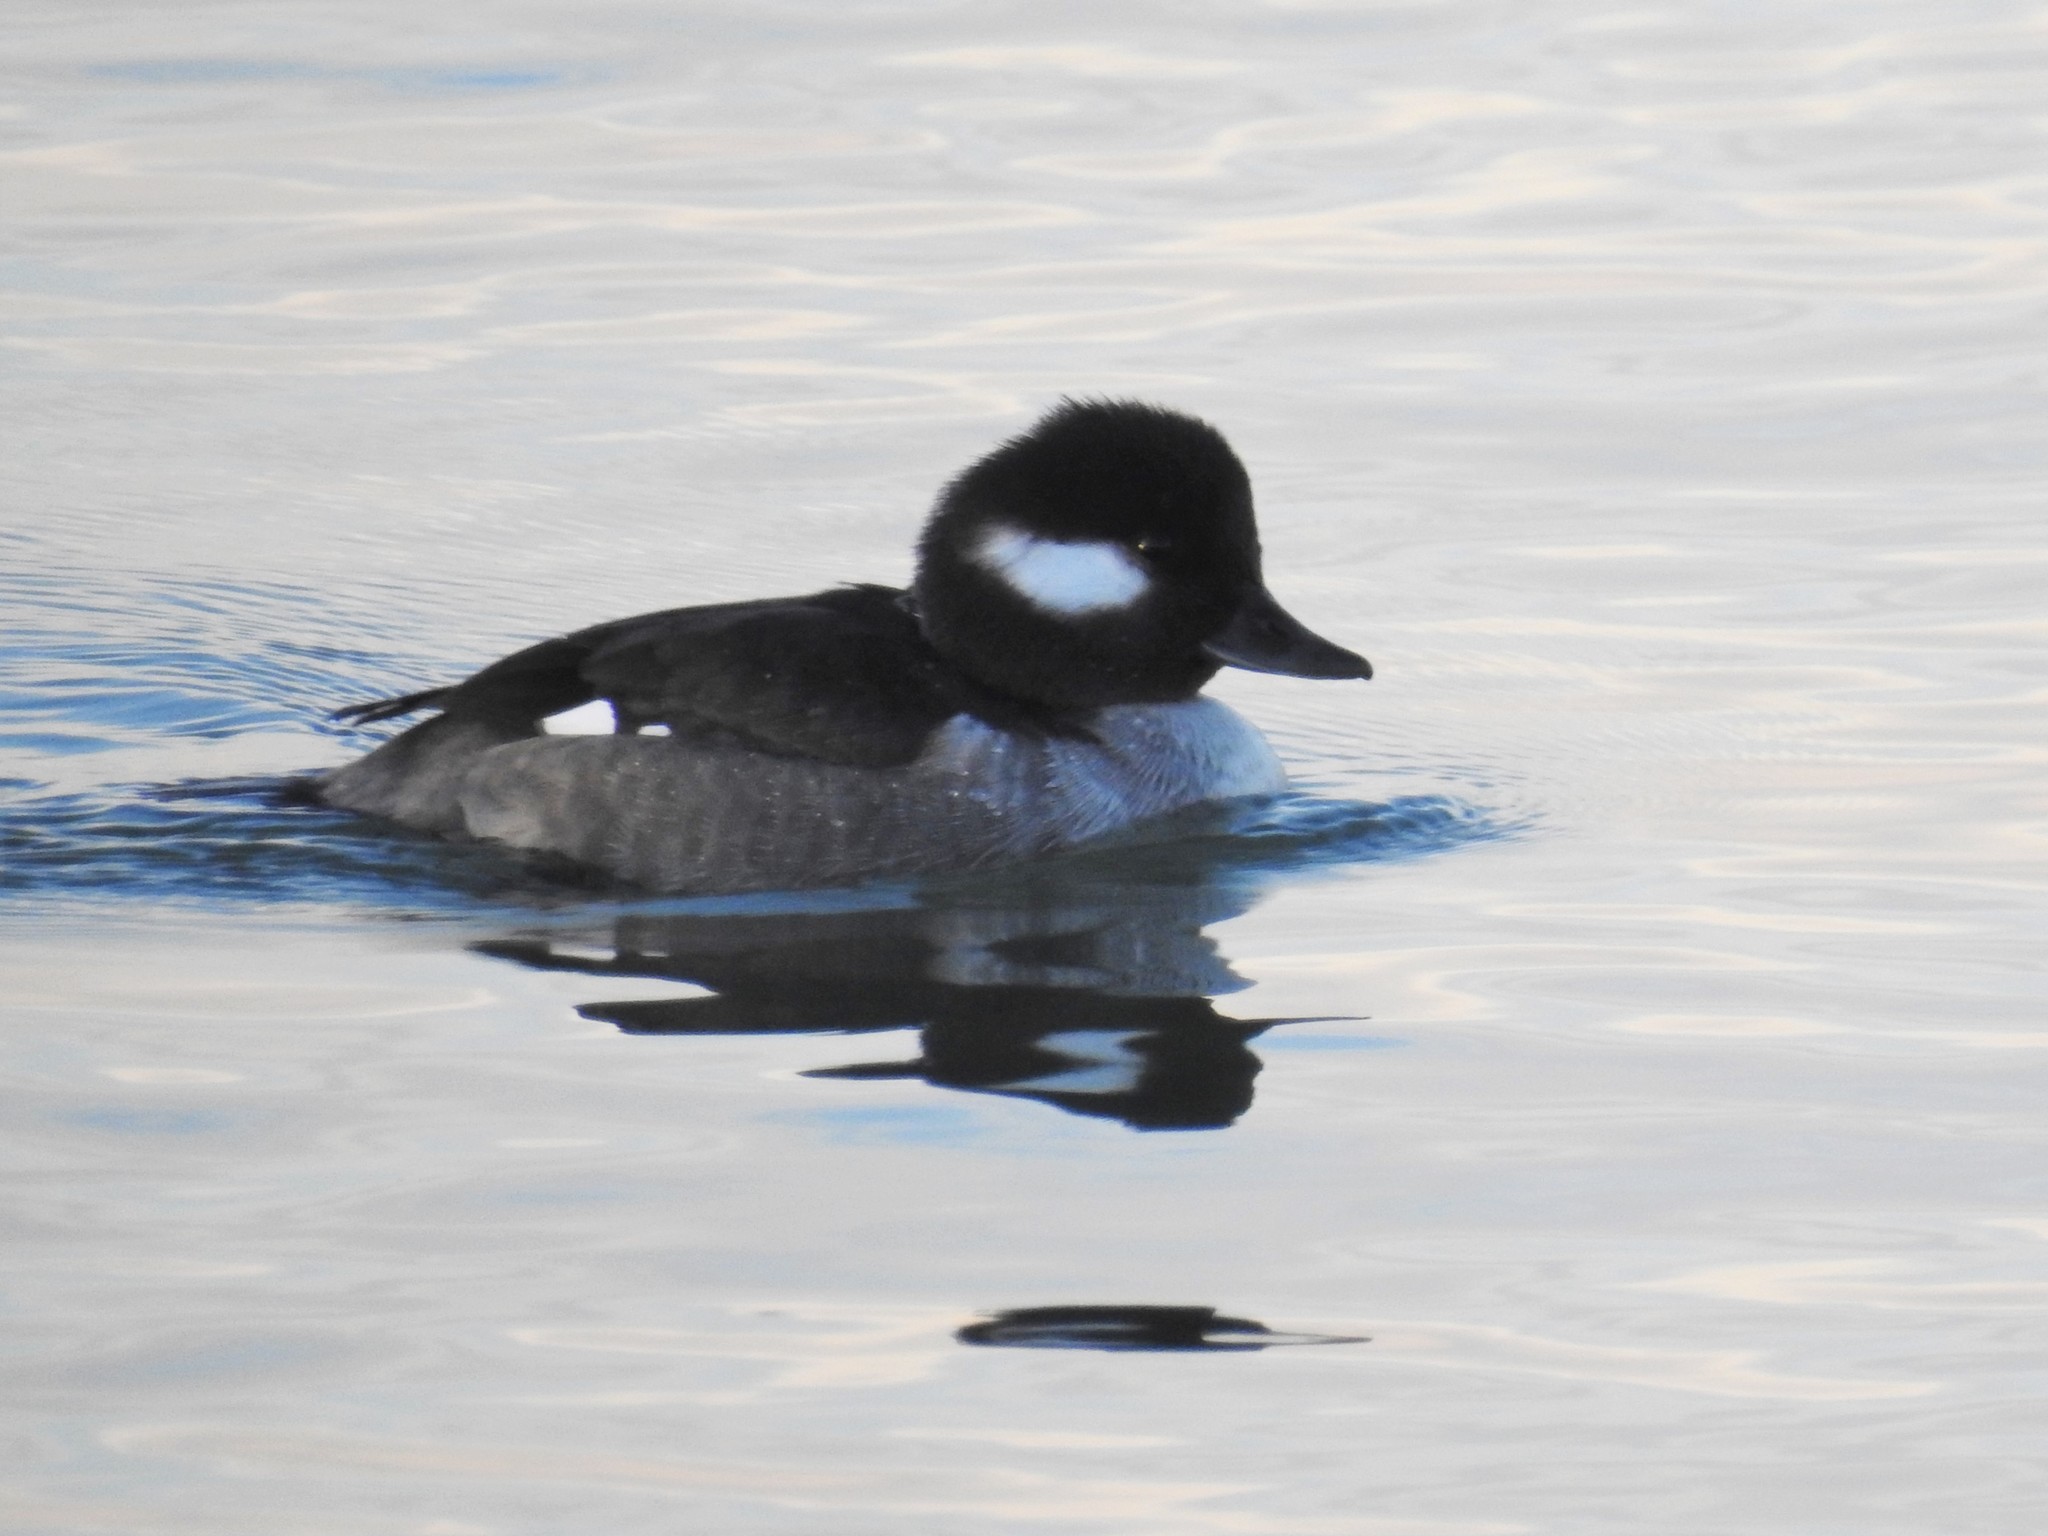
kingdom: Animalia
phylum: Chordata
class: Aves
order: Anseriformes
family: Anatidae
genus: Bucephala
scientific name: Bucephala albeola
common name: Bufflehead
